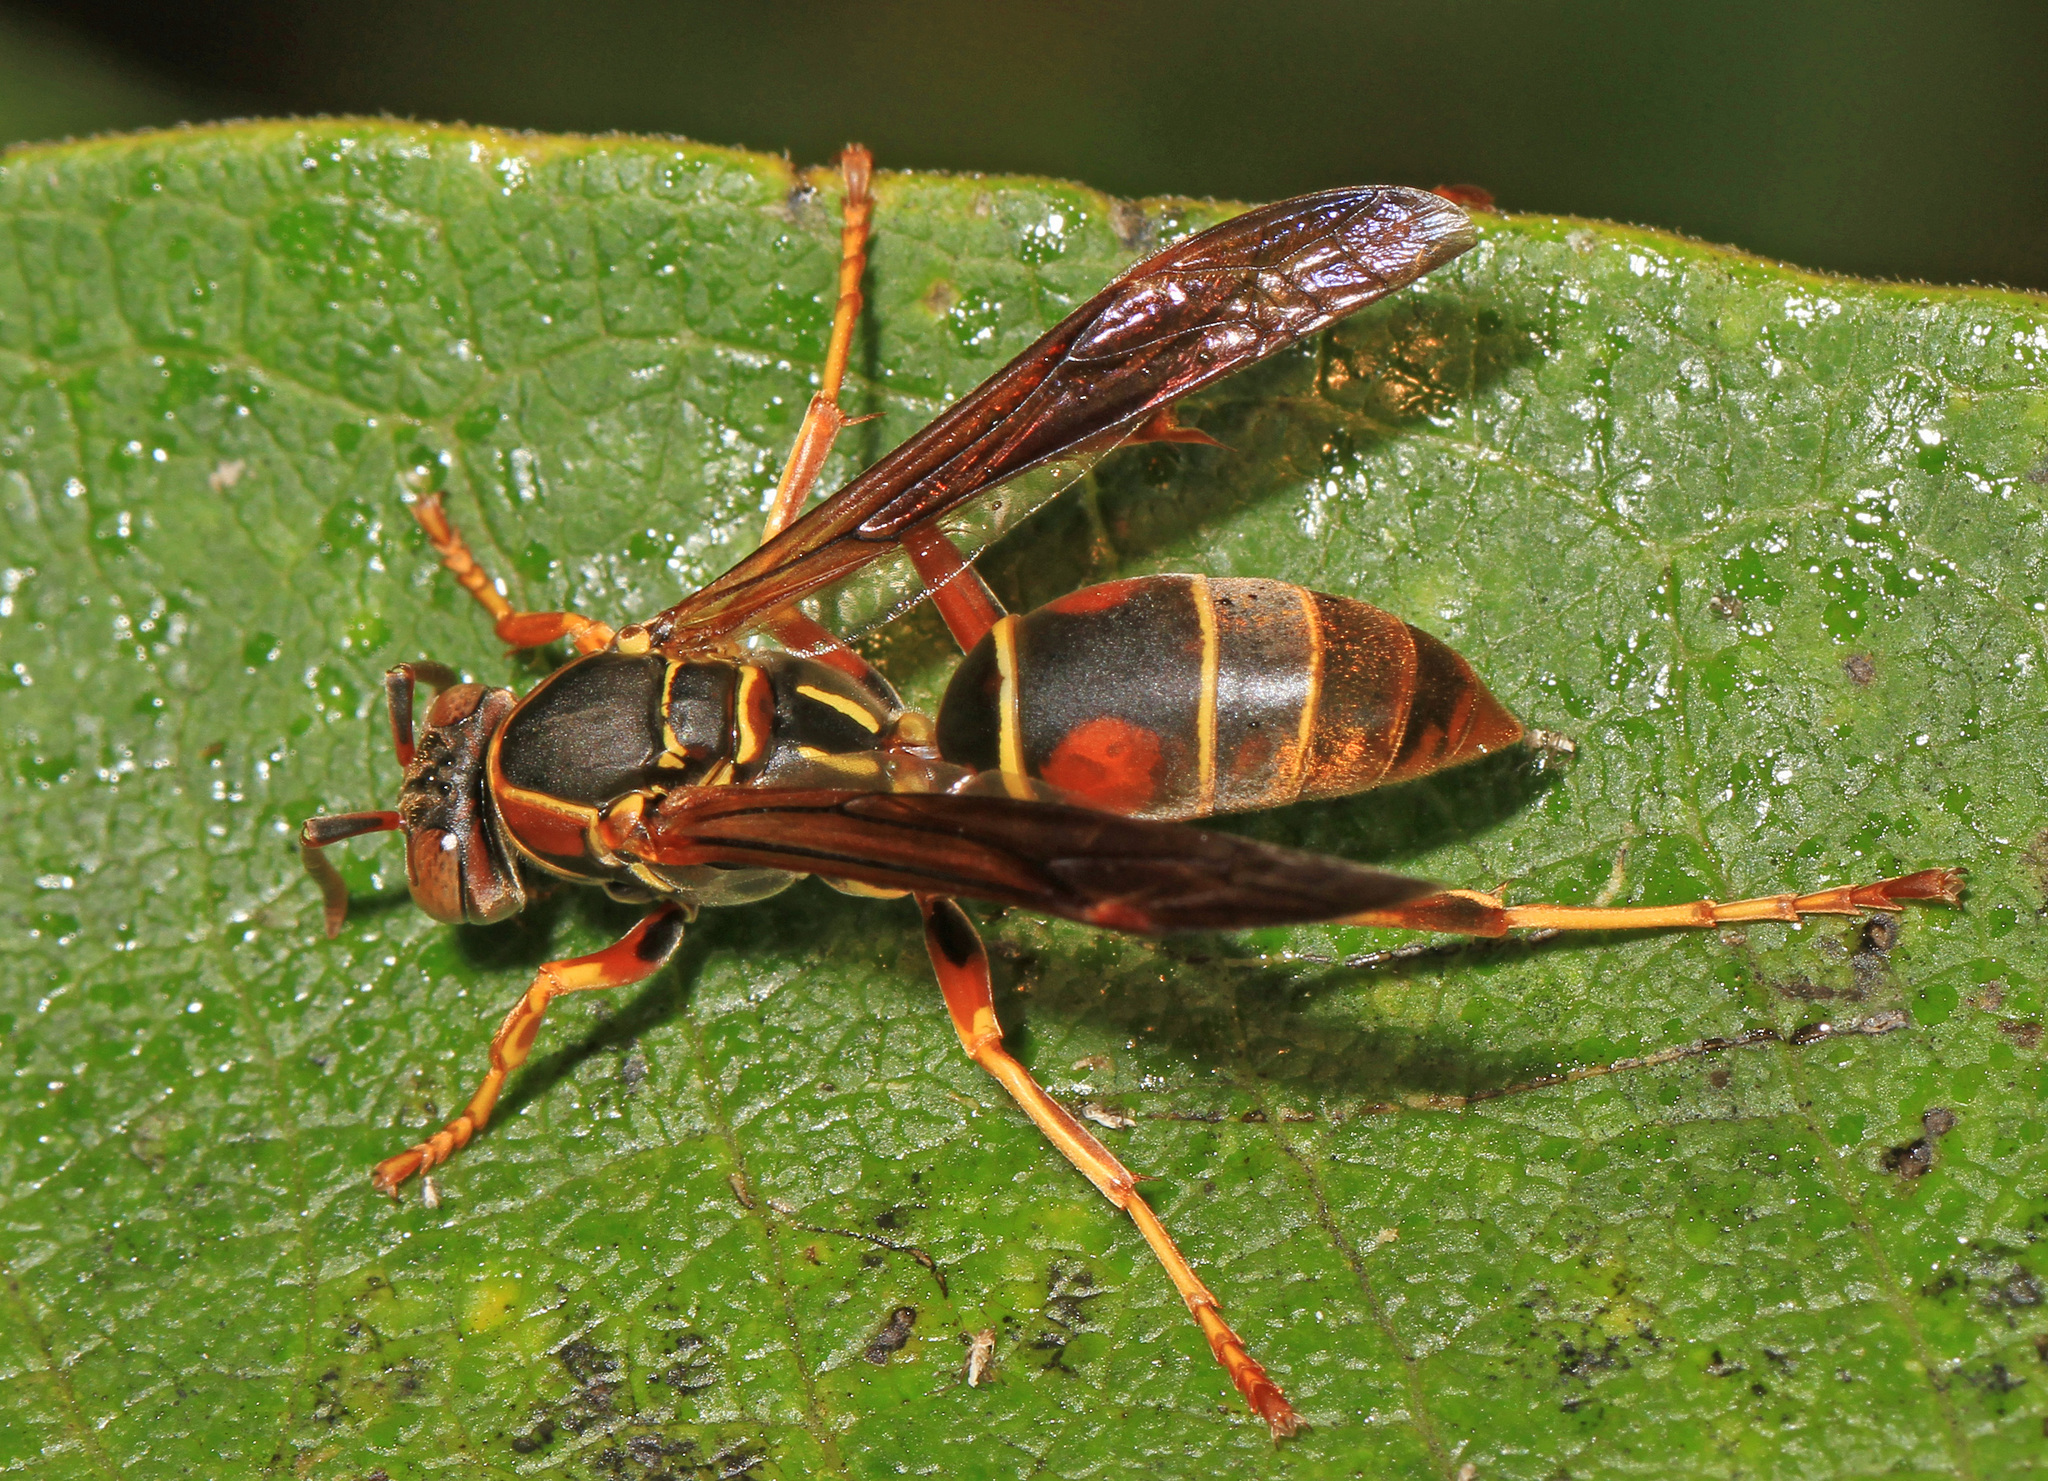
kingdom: Animalia
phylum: Arthropoda
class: Insecta
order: Hymenoptera
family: Eumenidae
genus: Polistes
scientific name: Polistes fuscatus
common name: Dark paper wasp
